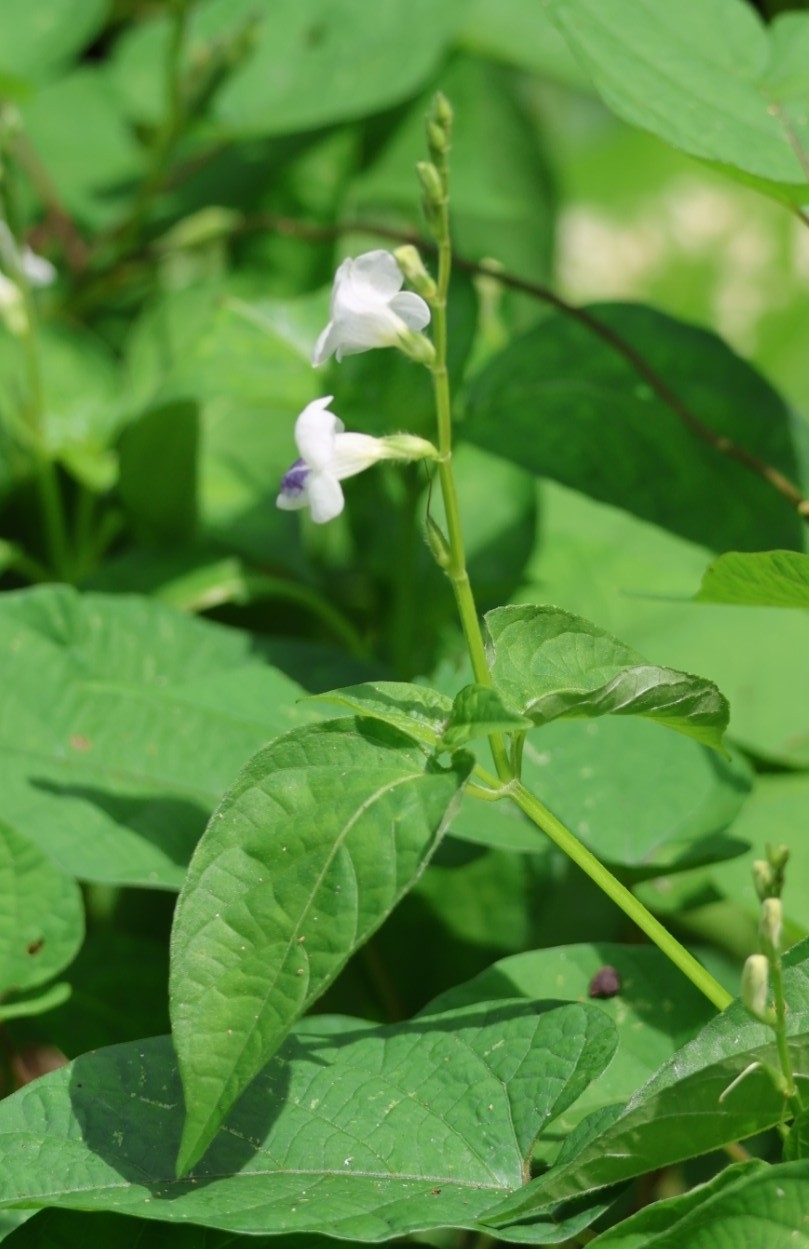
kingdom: Plantae
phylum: Tracheophyta
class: Magnoliopsida
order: Lamiales
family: Acanthaceae
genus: Asystasia
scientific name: Asystasia intrusa
